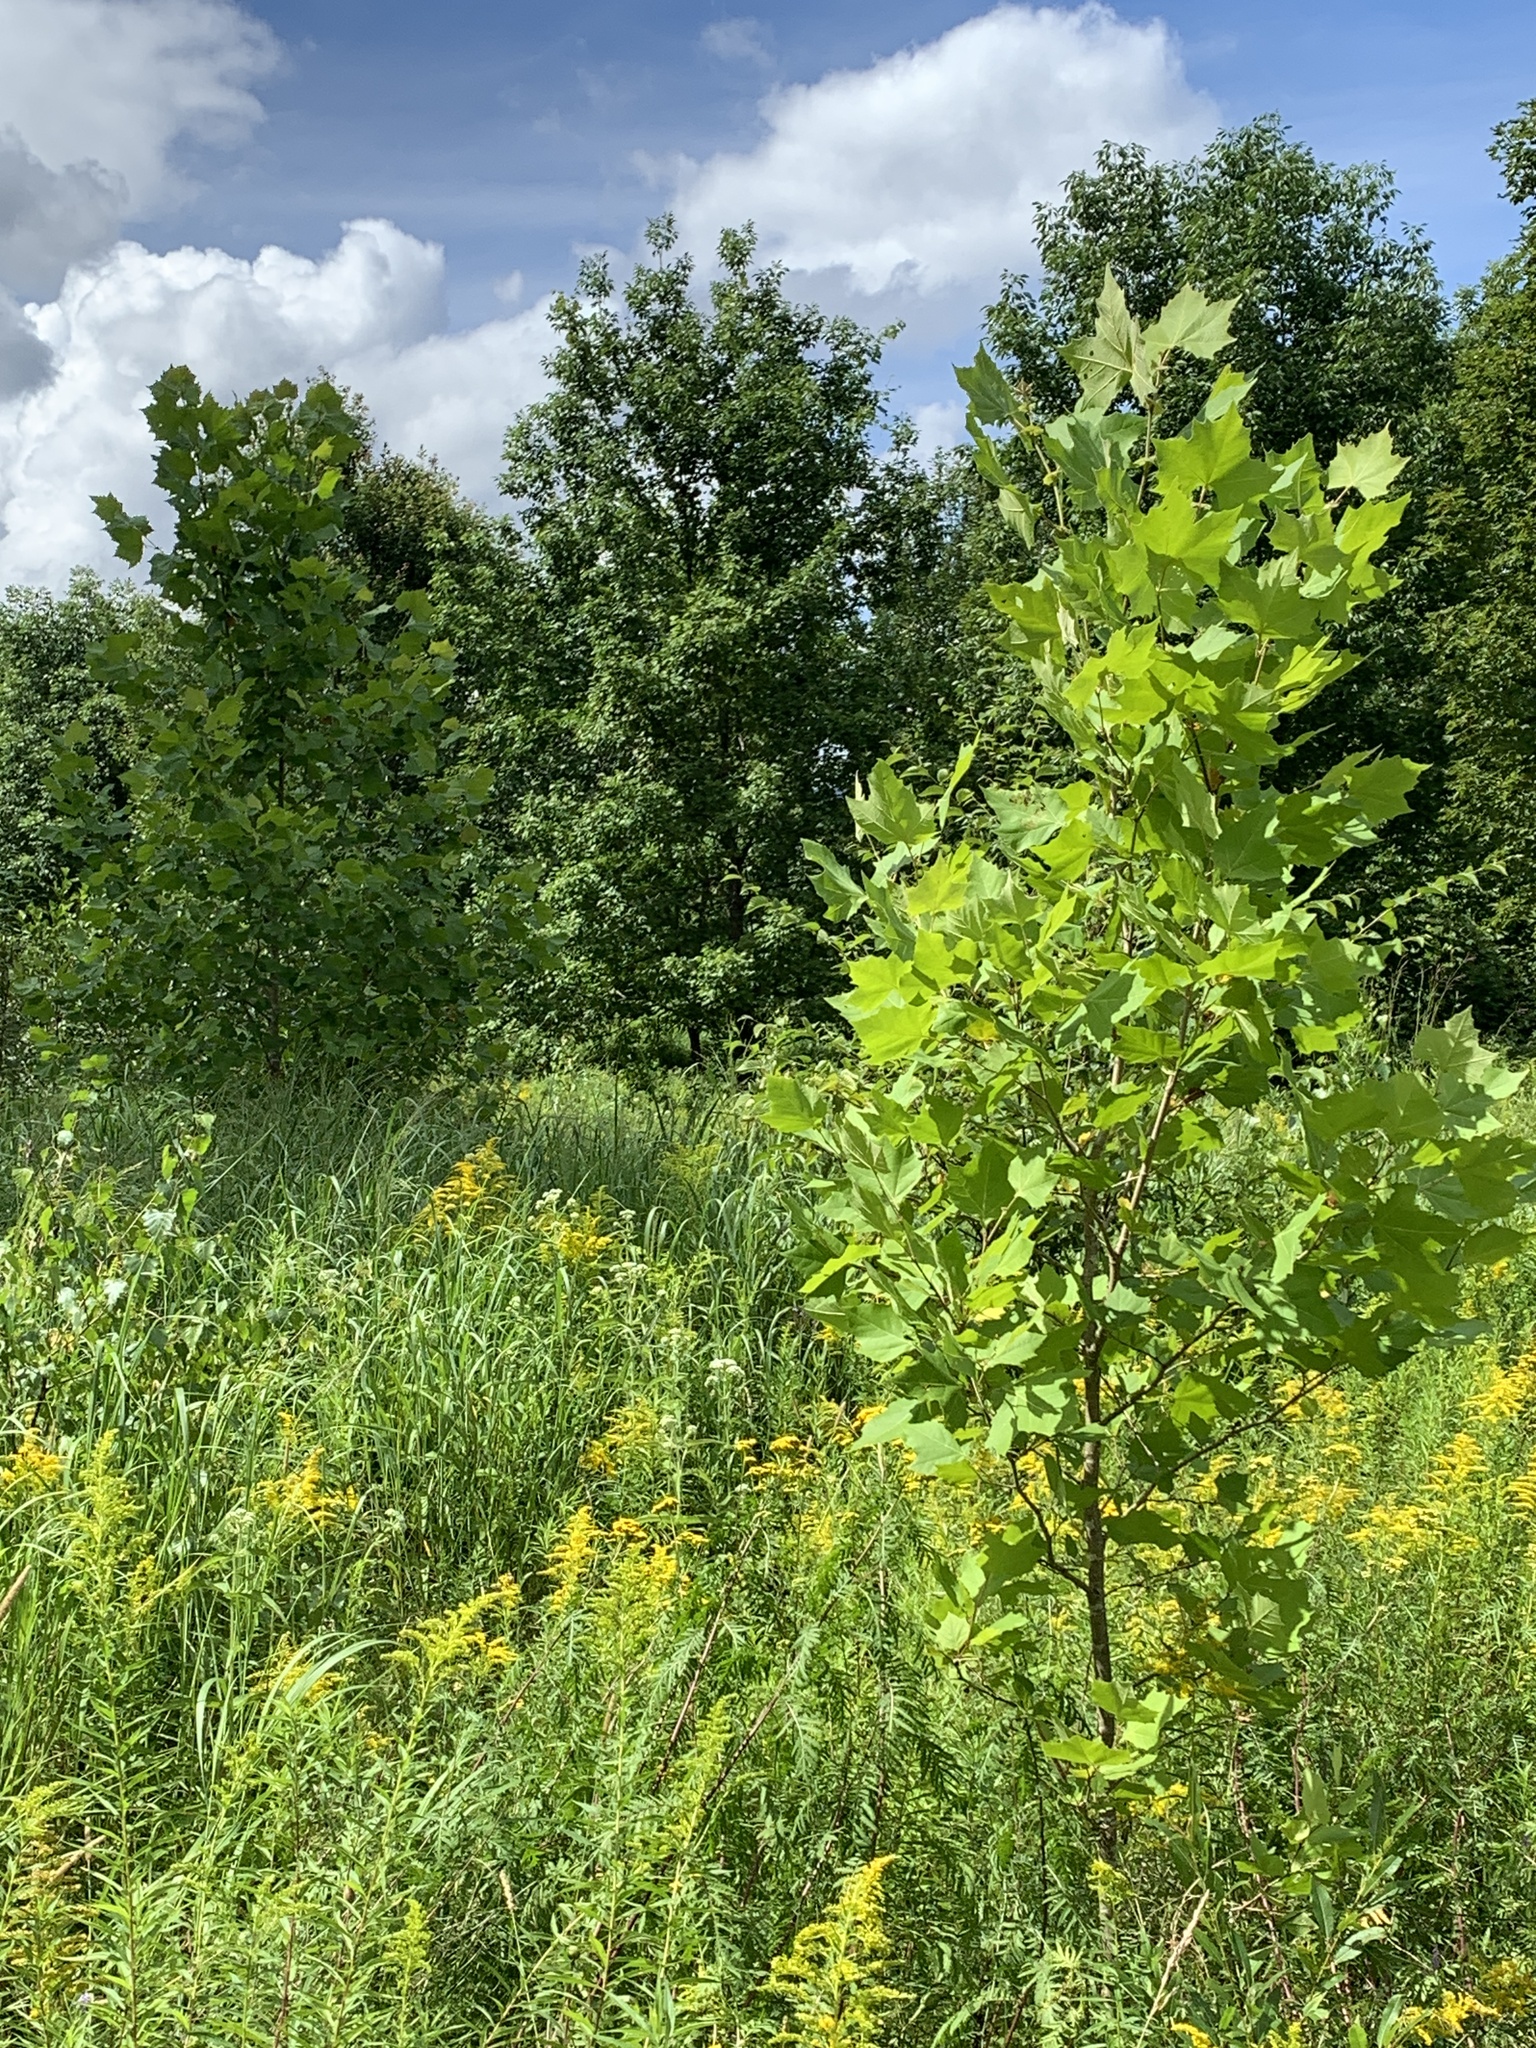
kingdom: Plantae
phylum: Tracheophyta
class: Magnoliopsida
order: Proteales
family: Platanaceae
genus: Platanus
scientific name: Platanus occidentalis
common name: American sycamore
